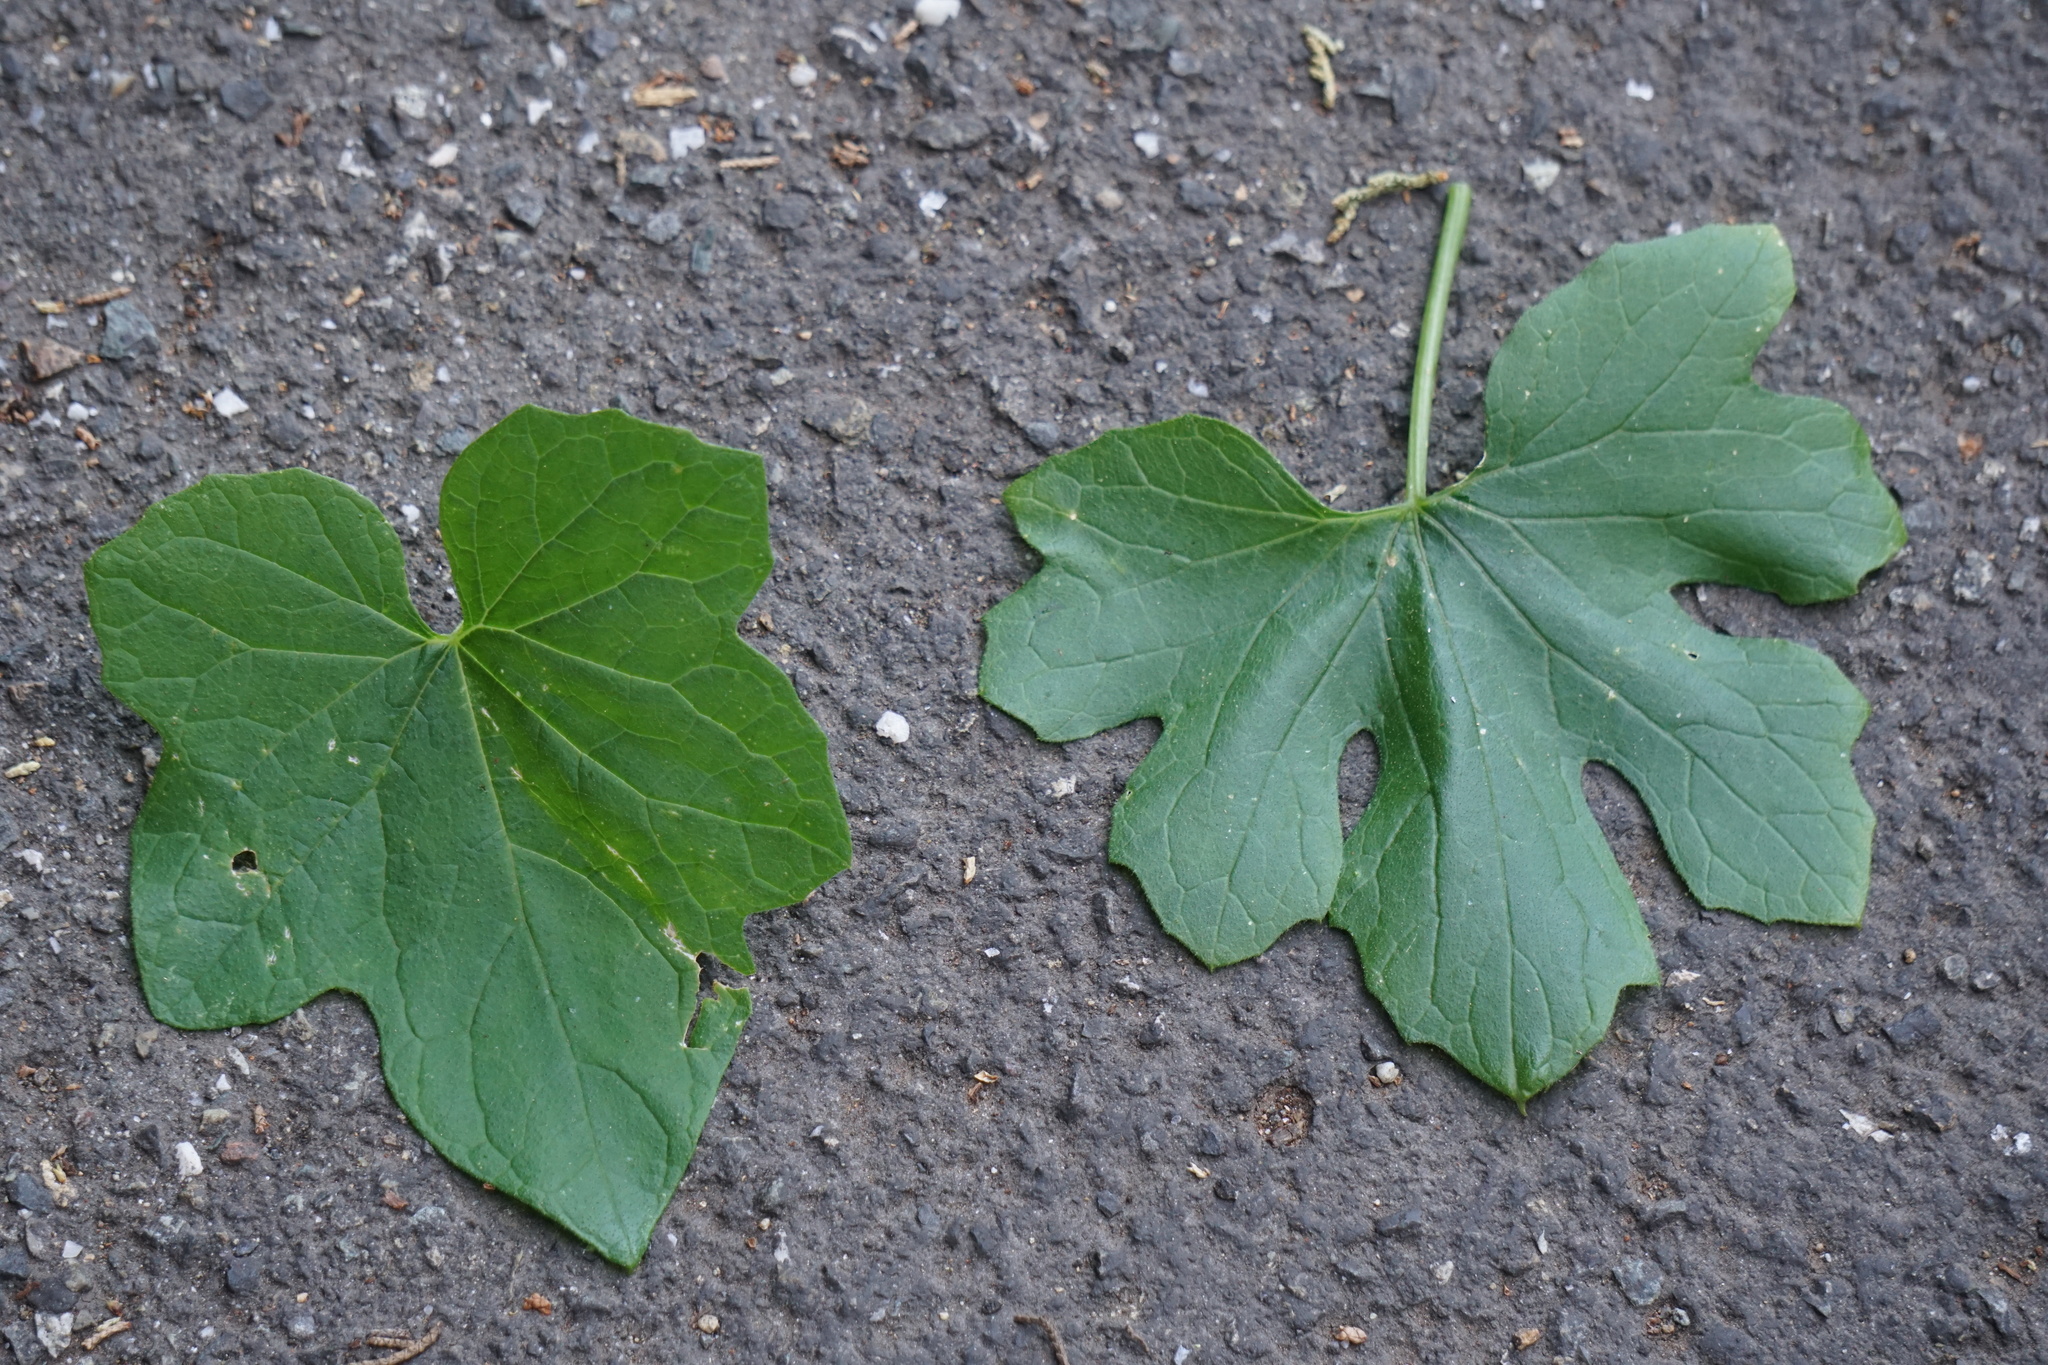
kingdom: Plantae
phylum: Tracheophyta
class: Magnoliopsida
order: Cucurbitales
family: Cucurbitaceae
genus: Marah
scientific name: Marah fabacea
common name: California manroot
